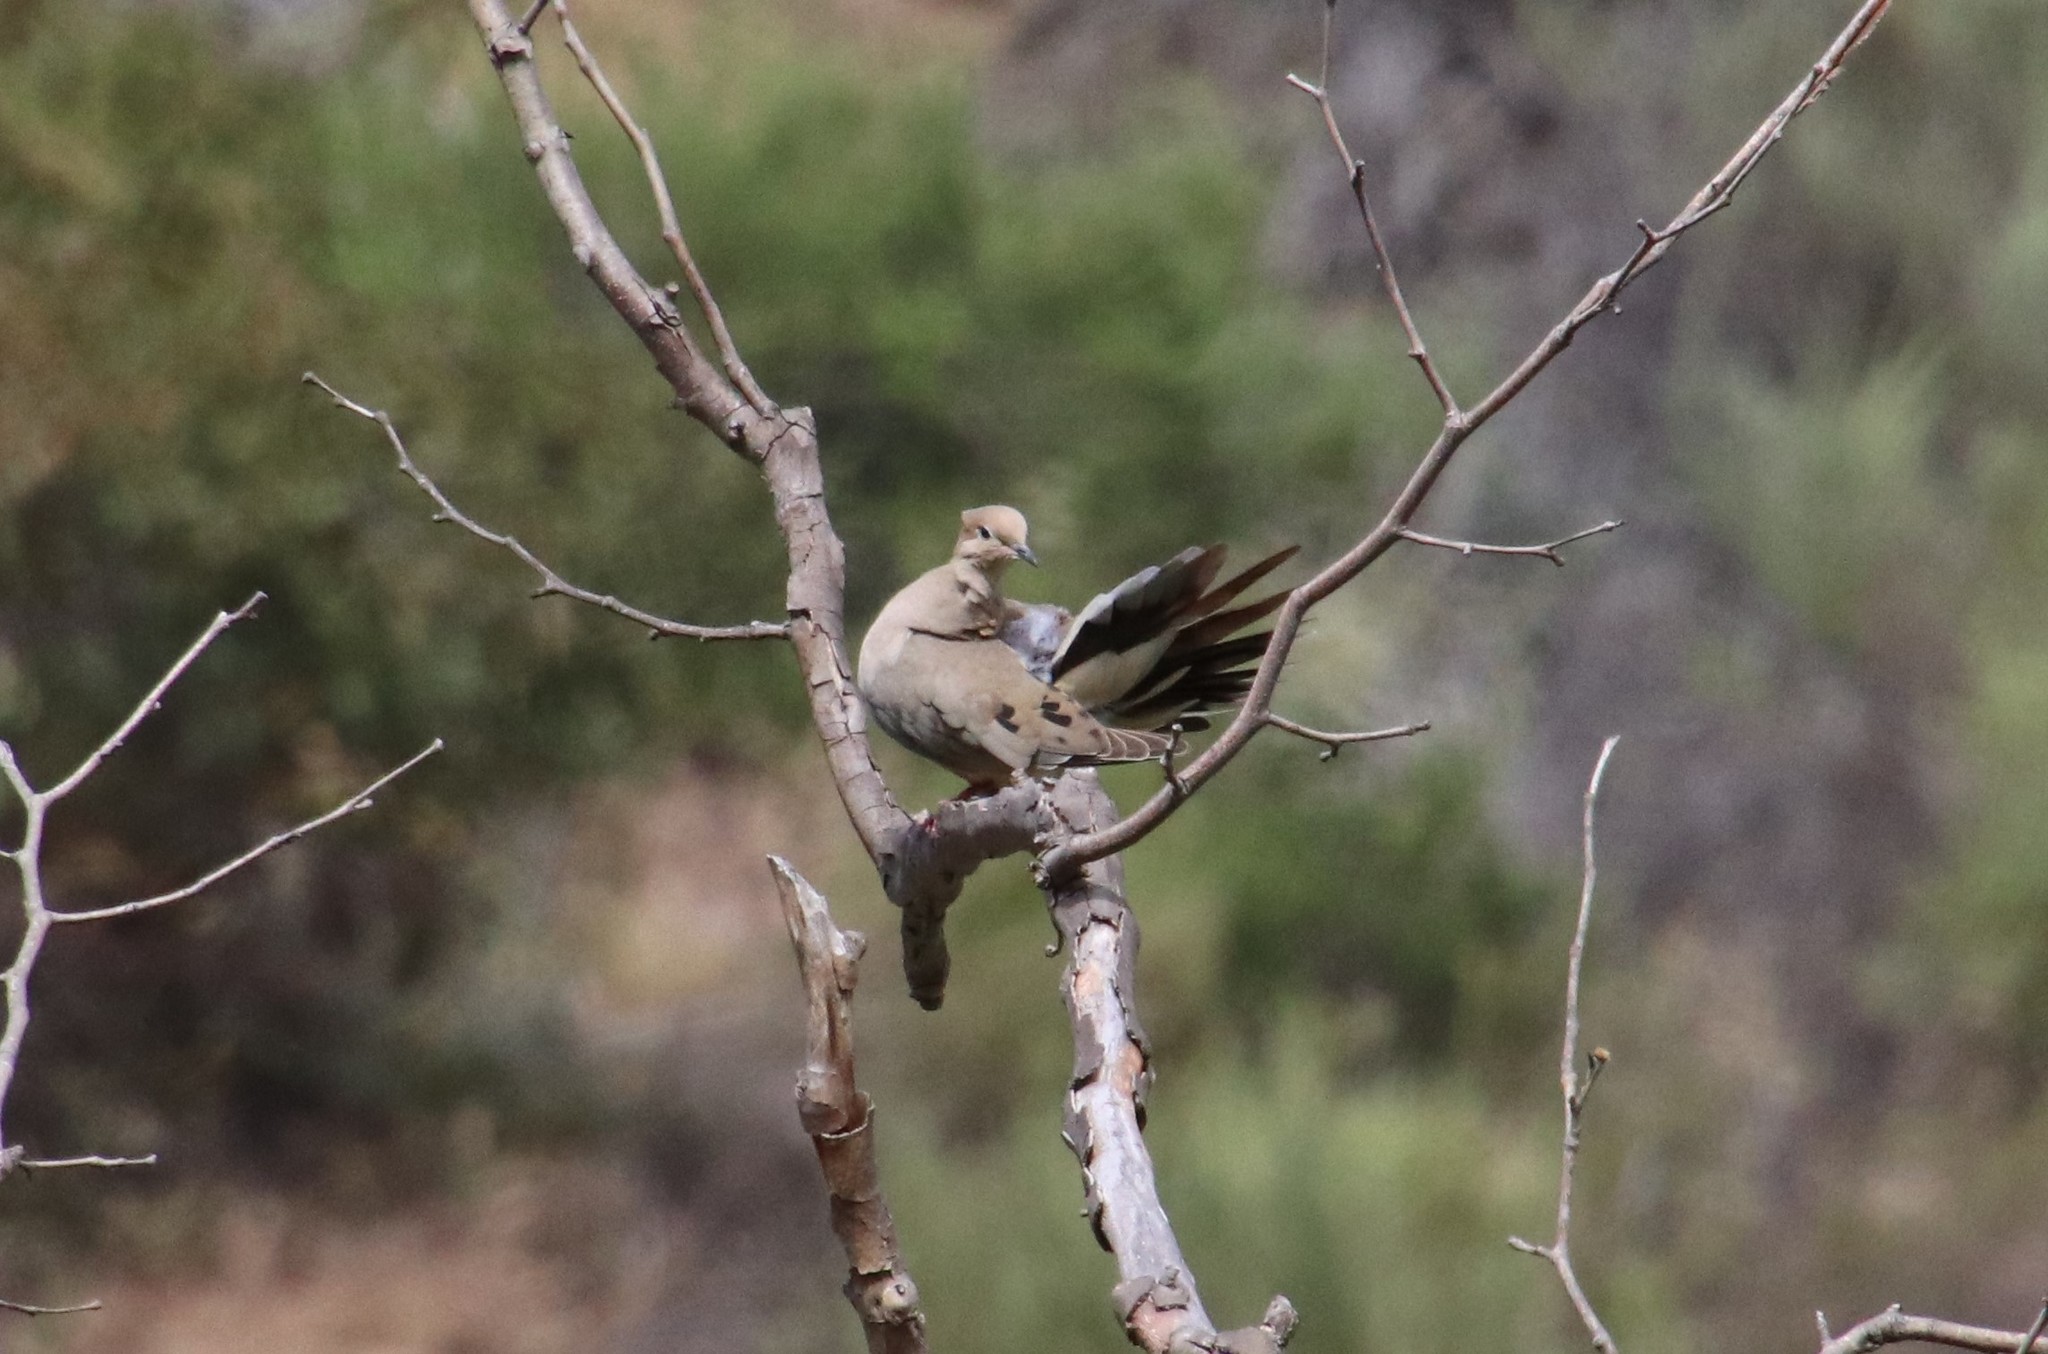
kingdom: Animalia
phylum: Chordata
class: Aves
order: Columbiformes
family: Columbidae
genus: Zenaida
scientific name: Zenaida macroura
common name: Mourning dove
